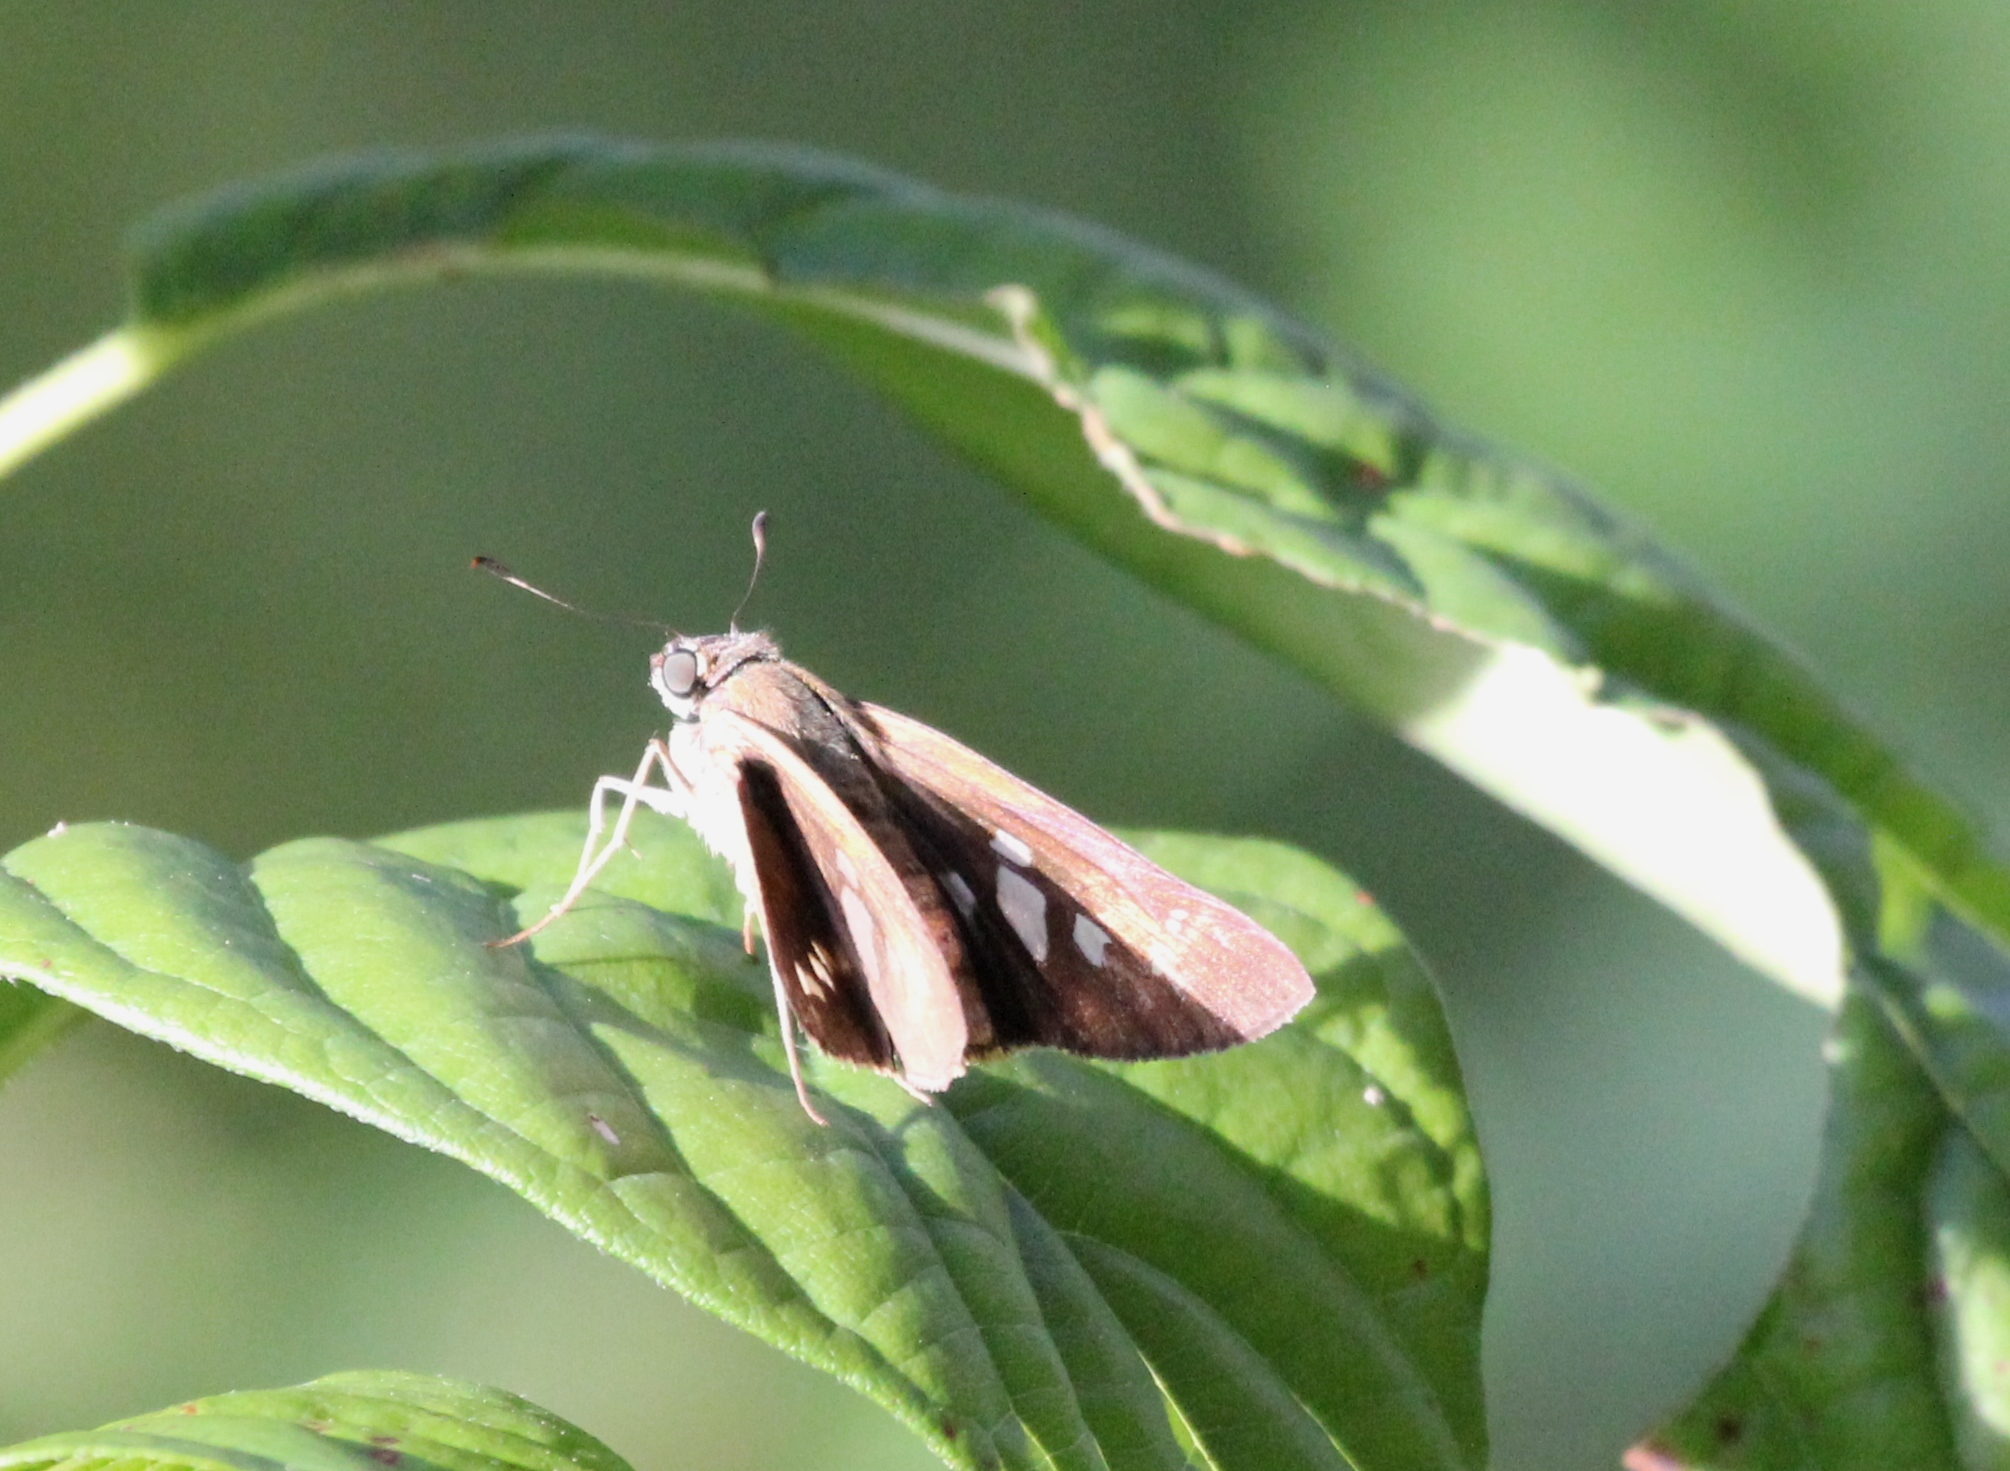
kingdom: Animalia
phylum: Arthropoda
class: Insecta
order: Lepidoptera
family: Hesperiidae
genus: Calpodes
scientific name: Calpodes ethlius
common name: Brazilian skipper
